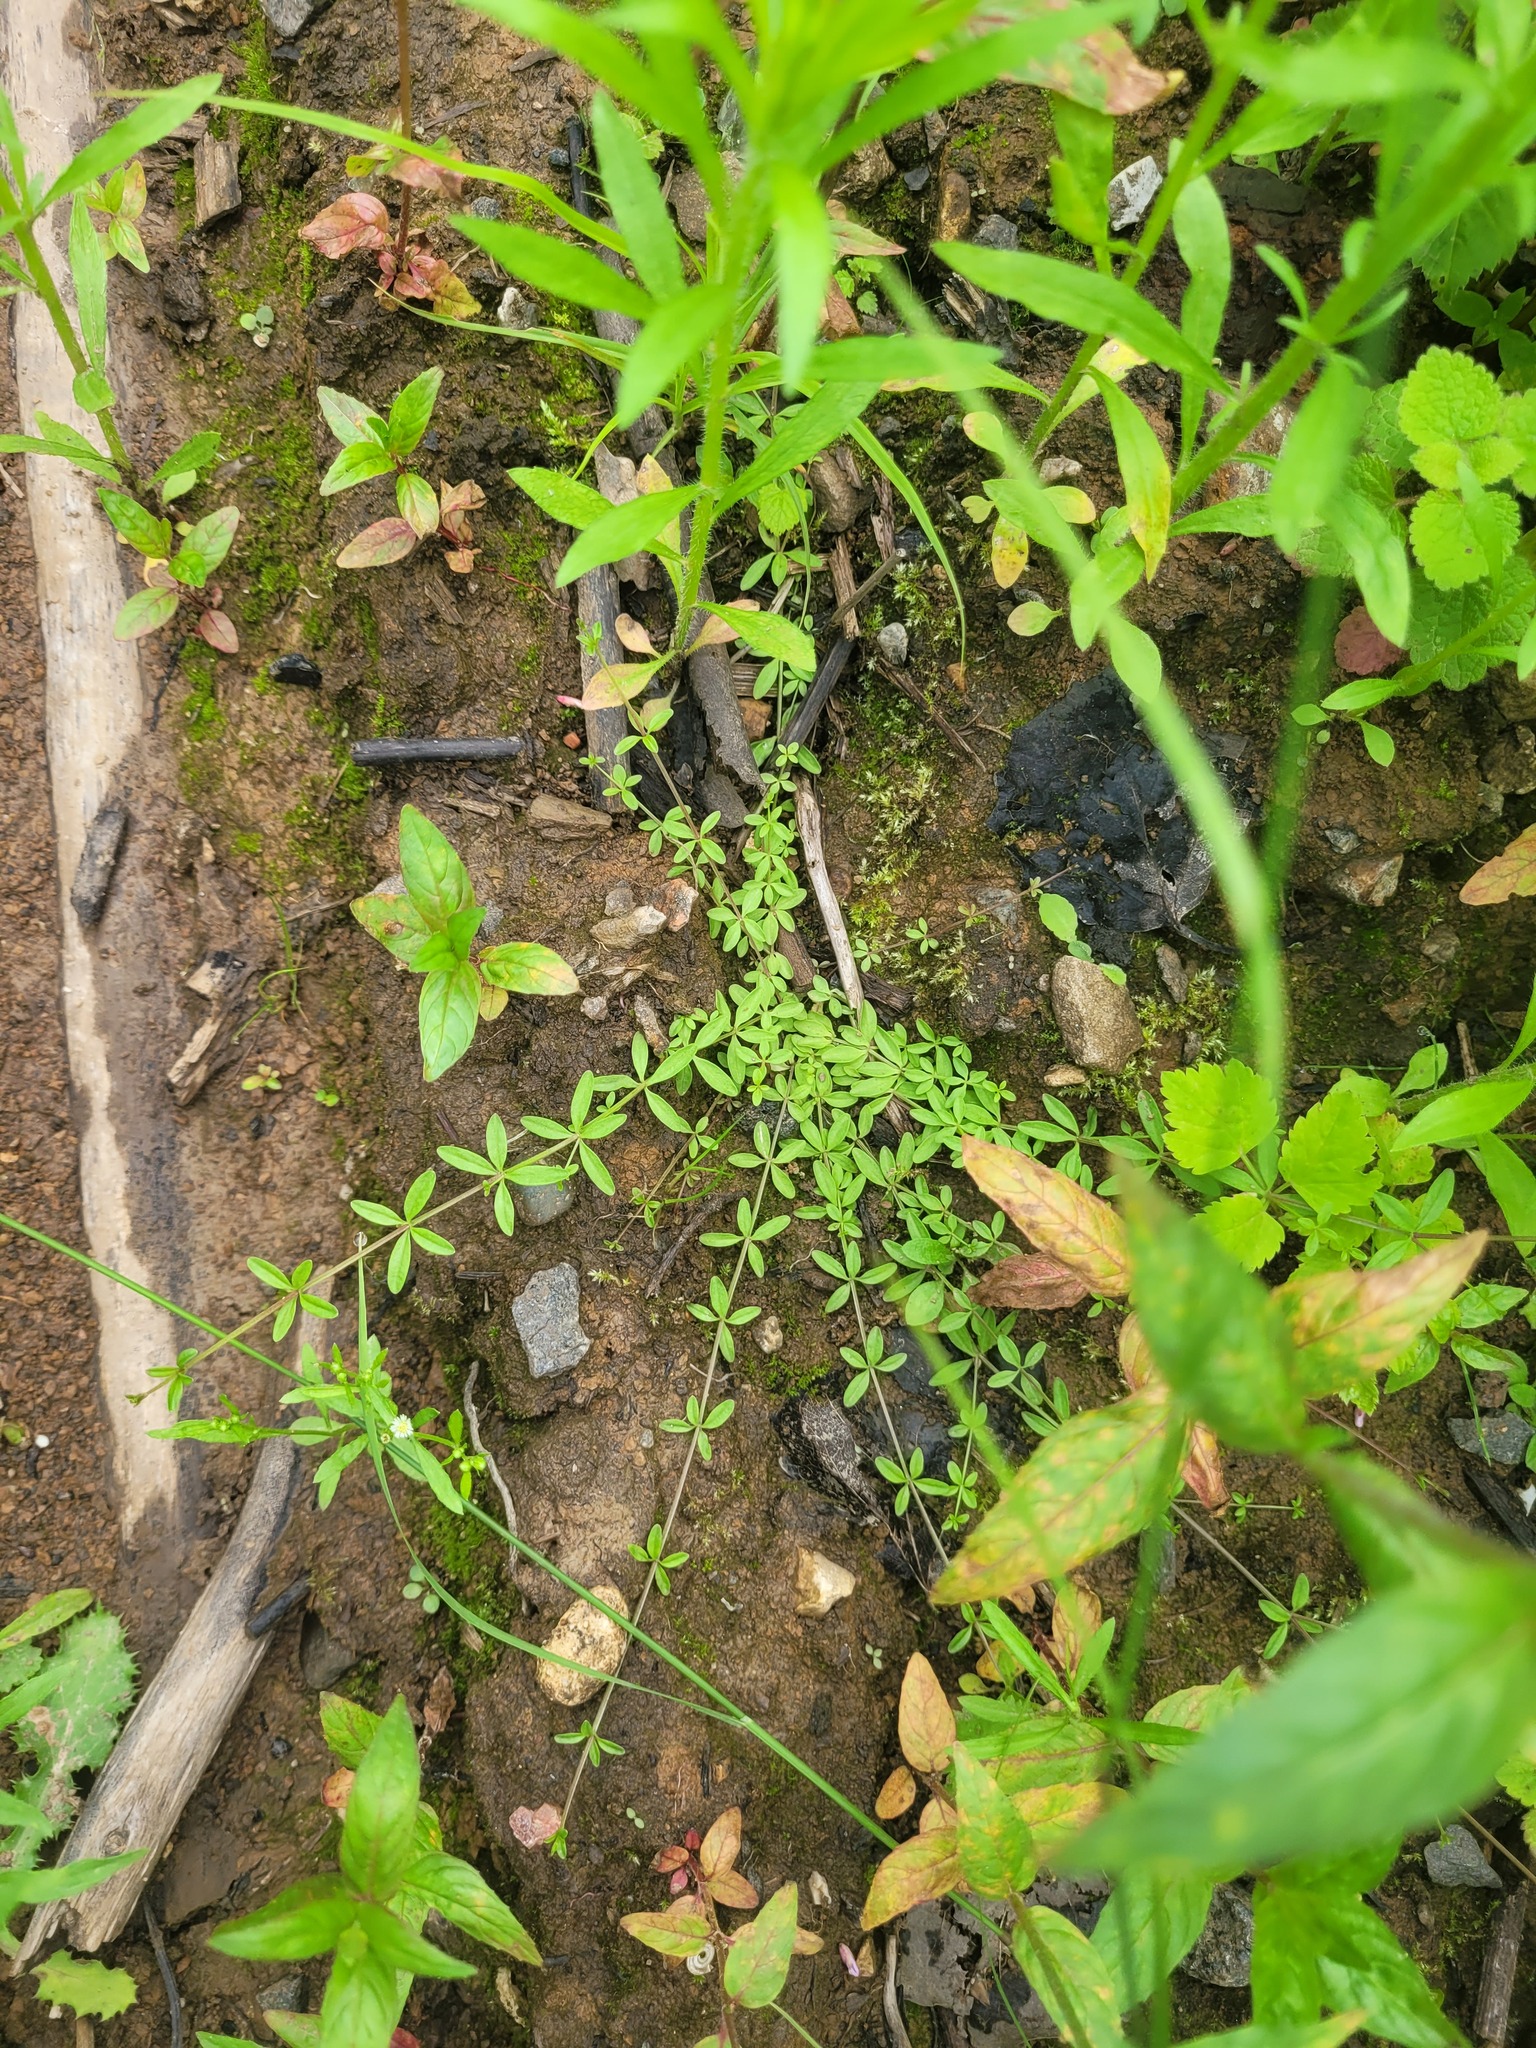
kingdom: Plantae
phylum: Tracheophyta
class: Magnoliopsida
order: Gentianales
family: Rubiaceae
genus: Galium
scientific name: Galium palustre
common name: Common marsh-bedstraw
